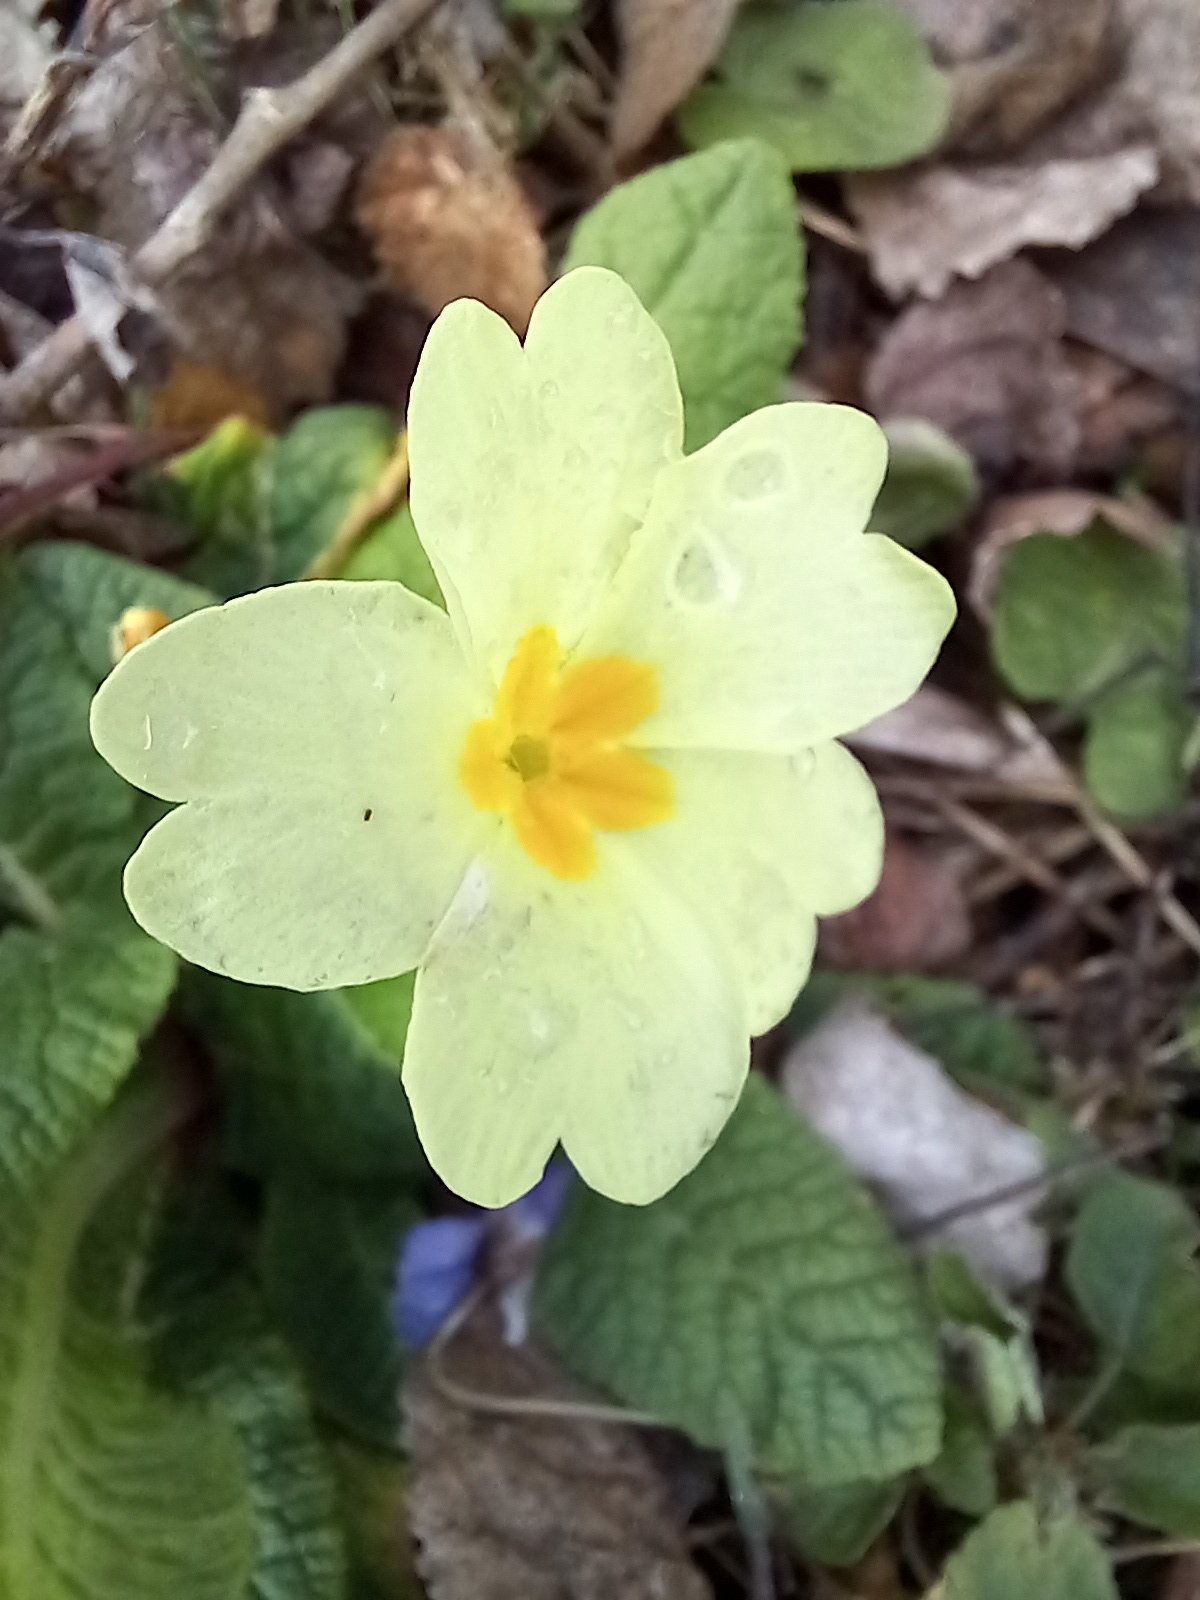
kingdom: Plantae
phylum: Tracheophyta
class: Magnoliopsida
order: Ericales
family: Primulaceae
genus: Primula
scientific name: Primula vulgaris
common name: Primrose
